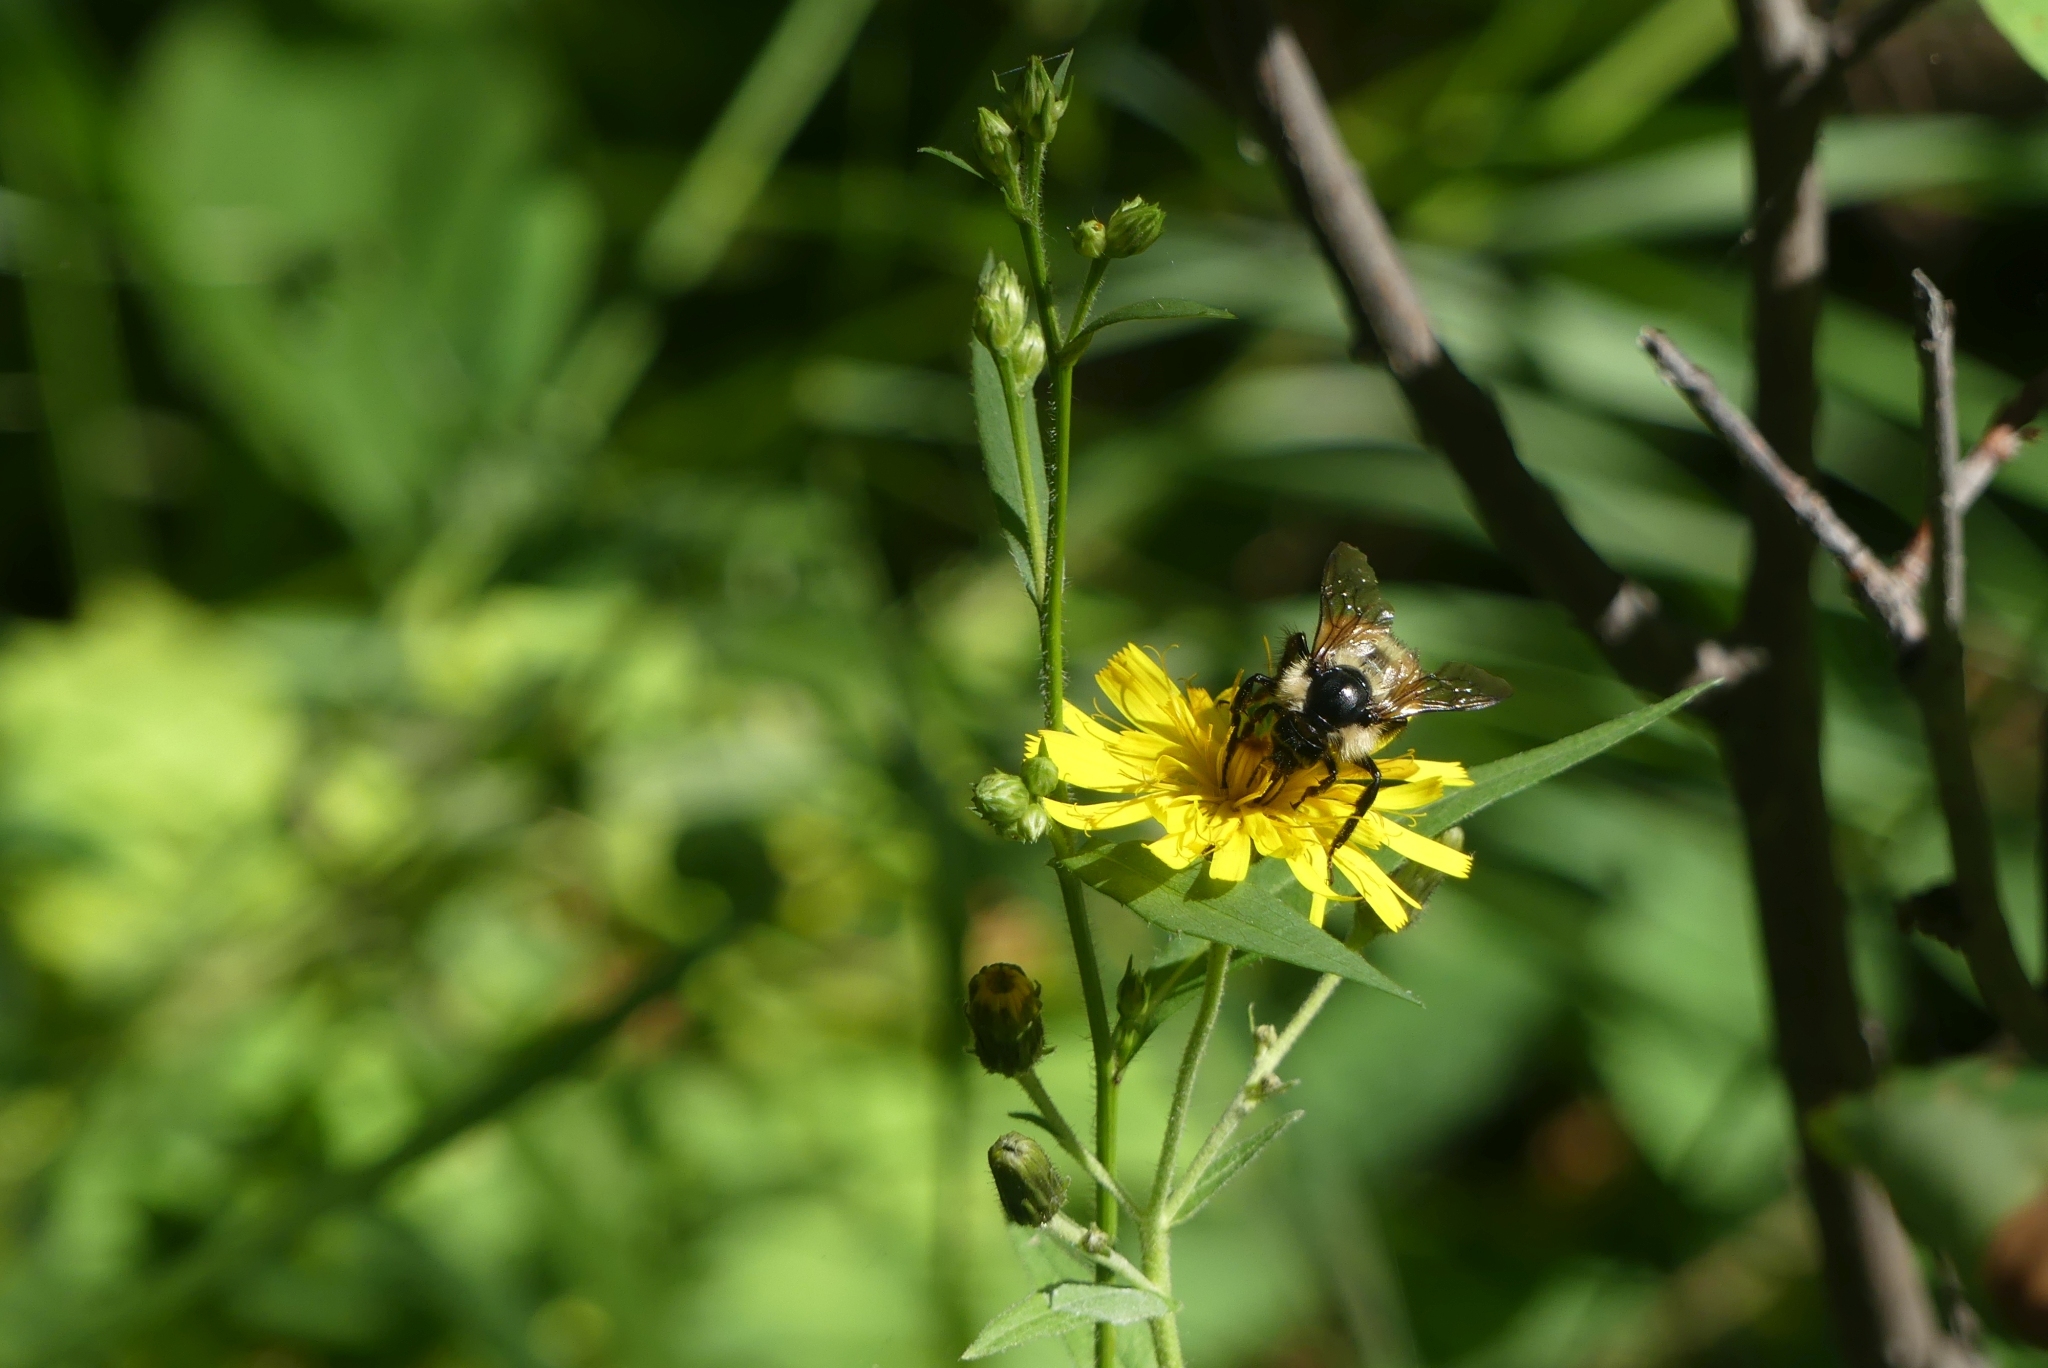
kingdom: Animalia
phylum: Arthropoda
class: Insecta
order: Hymenoptera
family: Apidae
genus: Bombus
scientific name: Bombus vagans
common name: Half-black bumble bee
